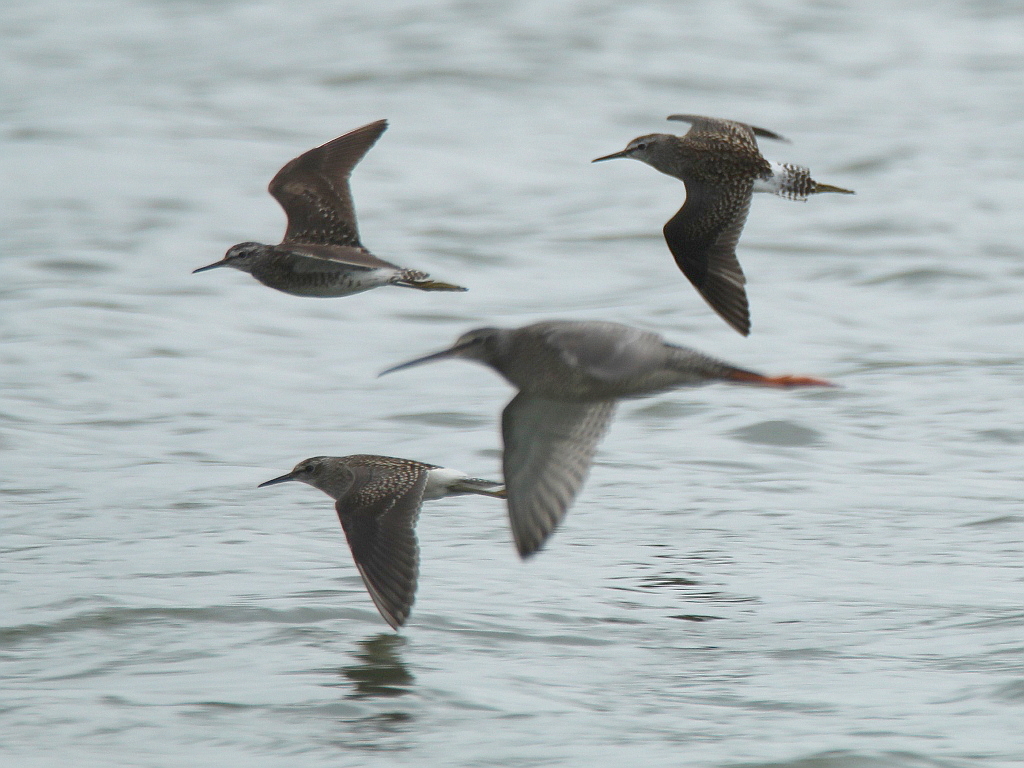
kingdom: Animalia
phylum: Chordata
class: Aves
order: Charadriiformes
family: Scolopacidae
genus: Tringa
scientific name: Tringa glareola
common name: Wood sandpiper
